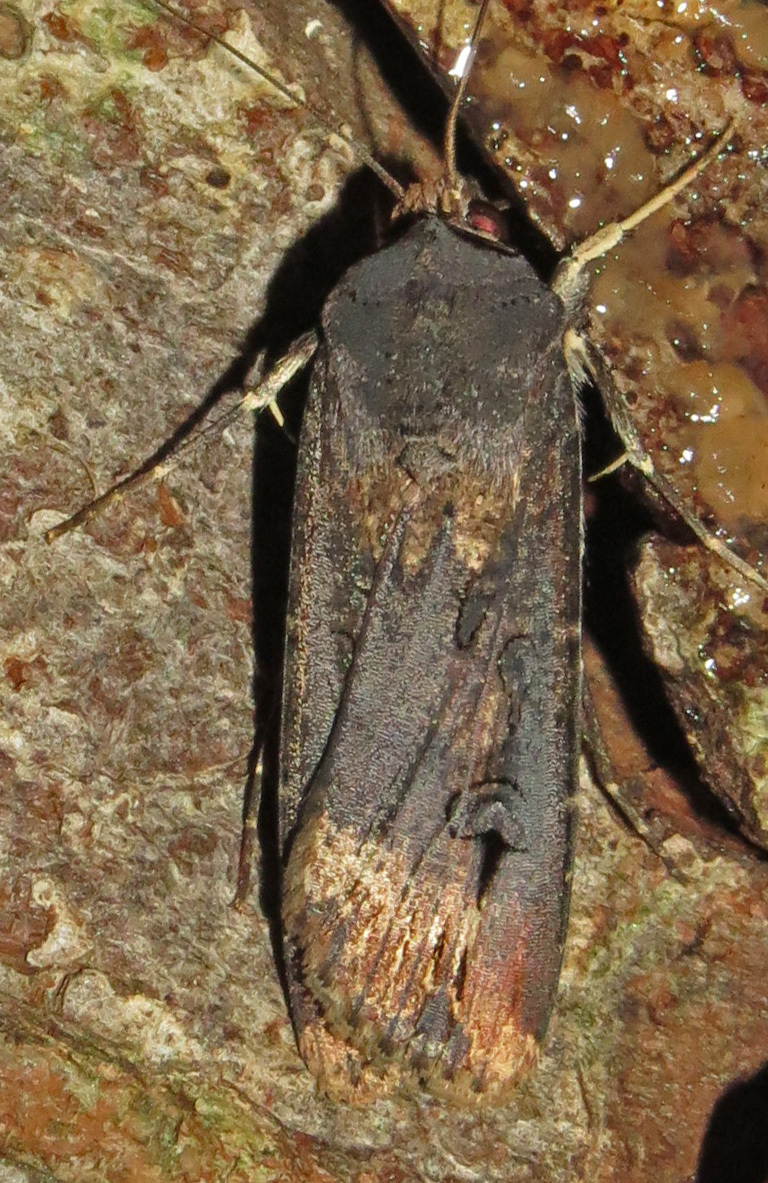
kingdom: Animalia
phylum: Arthropoda
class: Insecta
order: Lepidoptera
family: Noctuidae
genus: Agrotis
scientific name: Agrotis ipsilon
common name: Dark sword-grass
